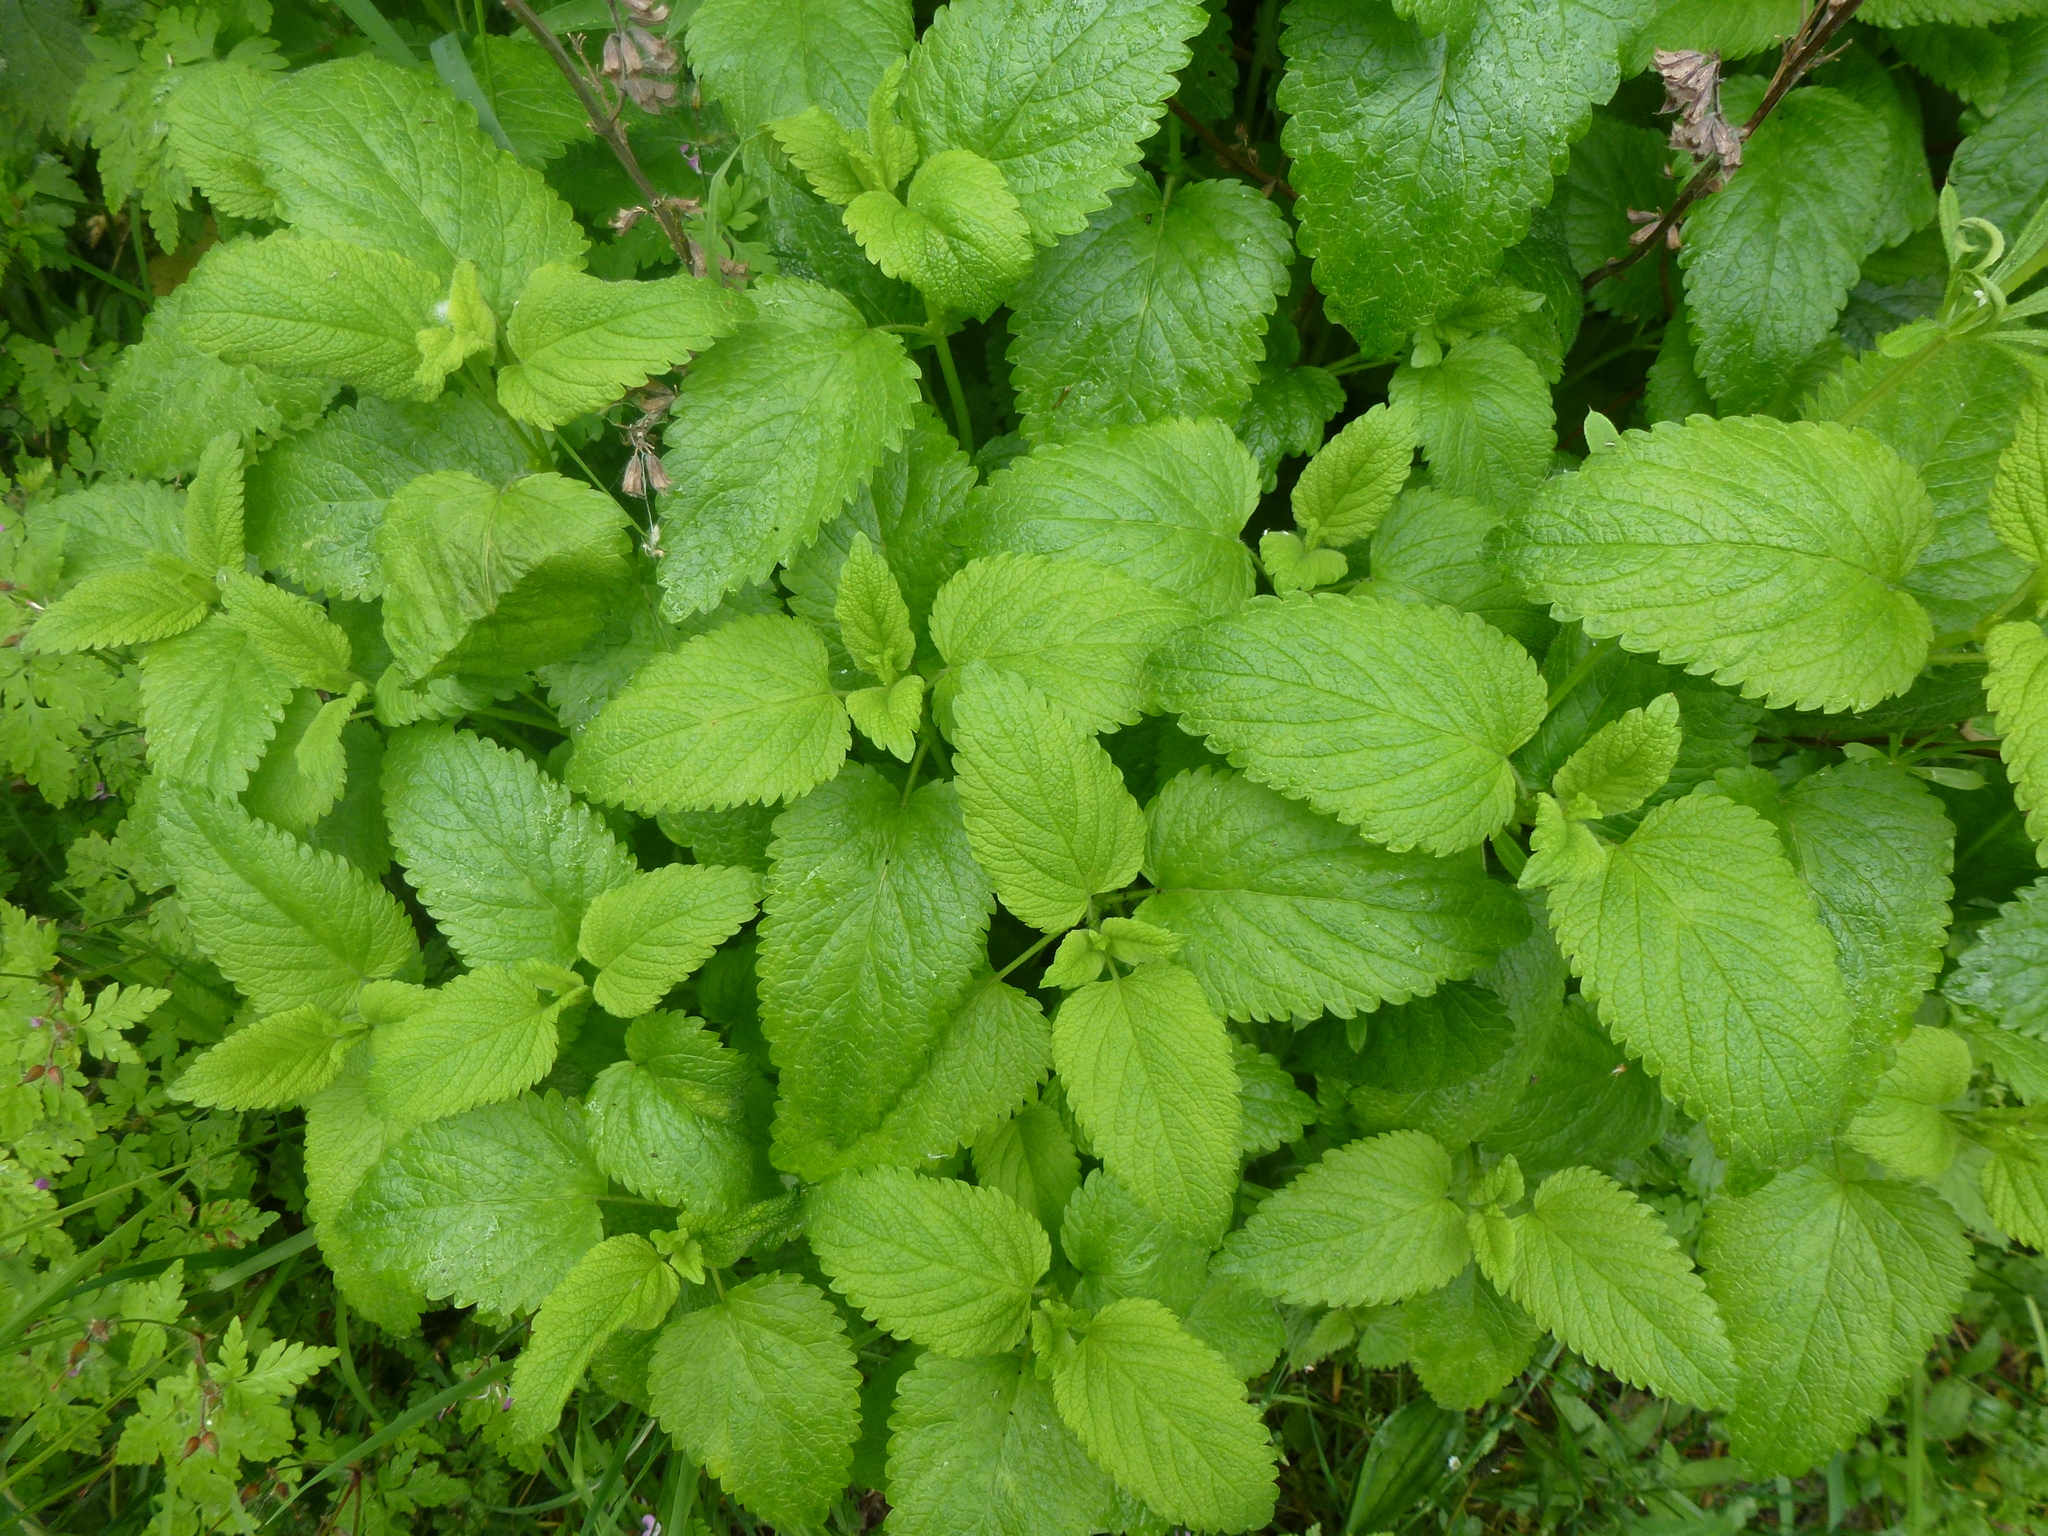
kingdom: Plantae
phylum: Tracheophyta
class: Magnoliopsida
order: Lamiales
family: Lamiaceae
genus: Melissa
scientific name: Melissa officinalis
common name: Balm
